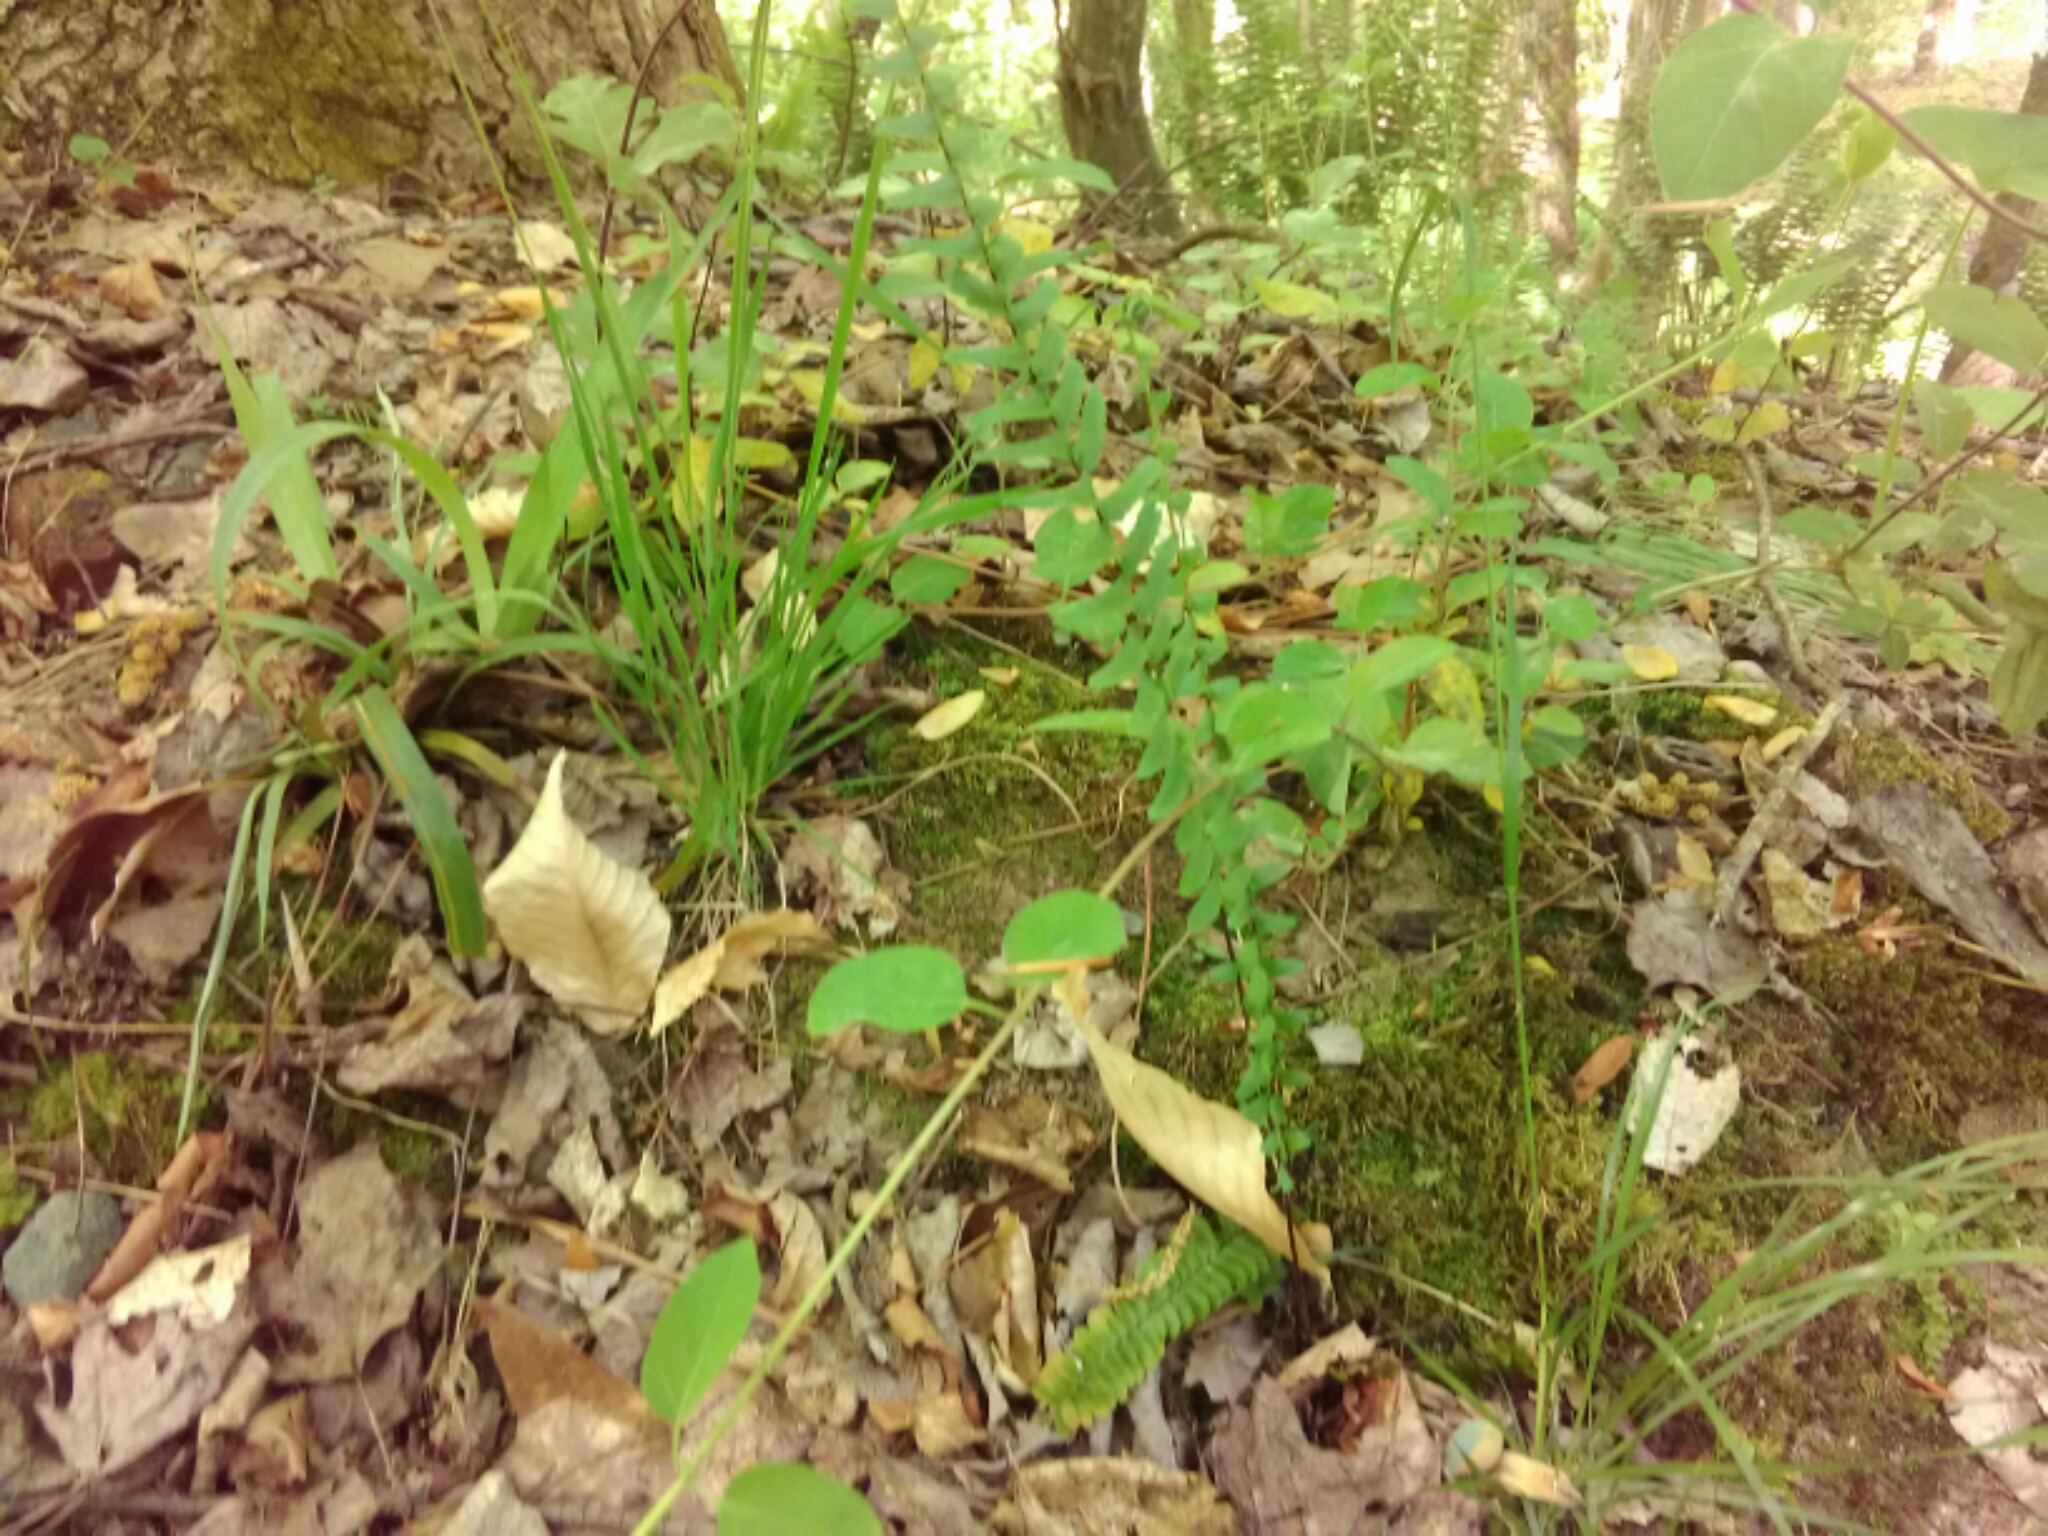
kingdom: Plantae
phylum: Tracheophyta
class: Polypodiopsida
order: Polypodiales
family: Aspleniaceae
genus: Asplenium
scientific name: Asplenium platyneuron
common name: Ebony spleenwort
